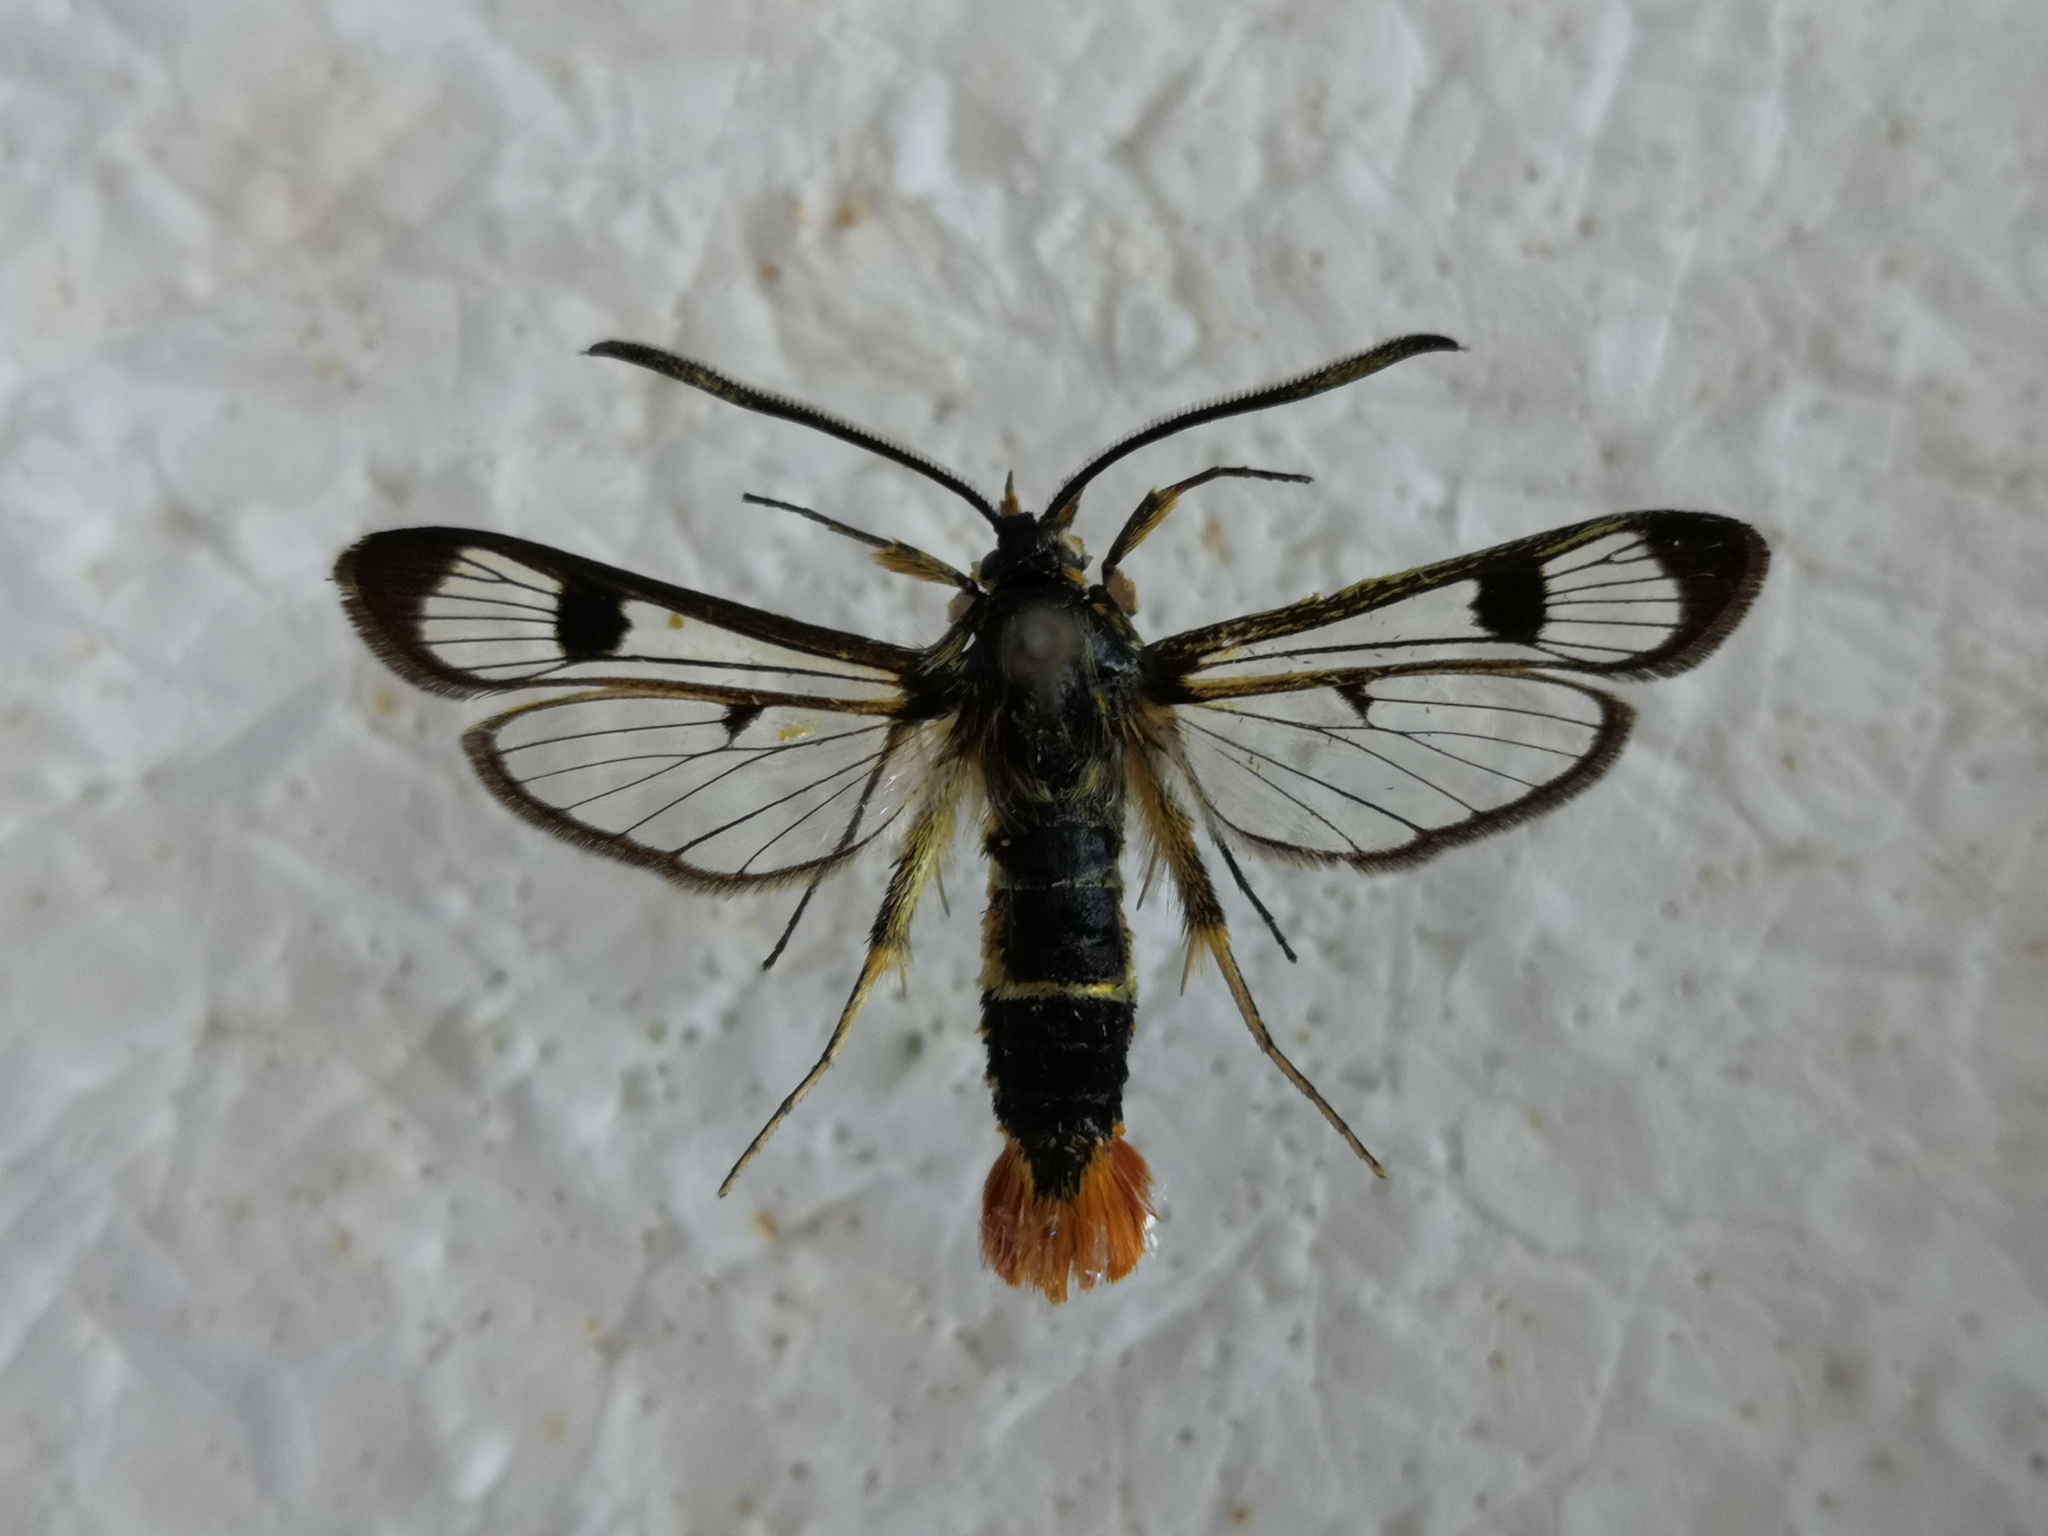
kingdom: Animalia
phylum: Arthropoda
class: Insecta
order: Lepidoptera
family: Sesiidae
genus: Synanthedon
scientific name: Synanthedon scoliaeformis
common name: Welsh clearwing
